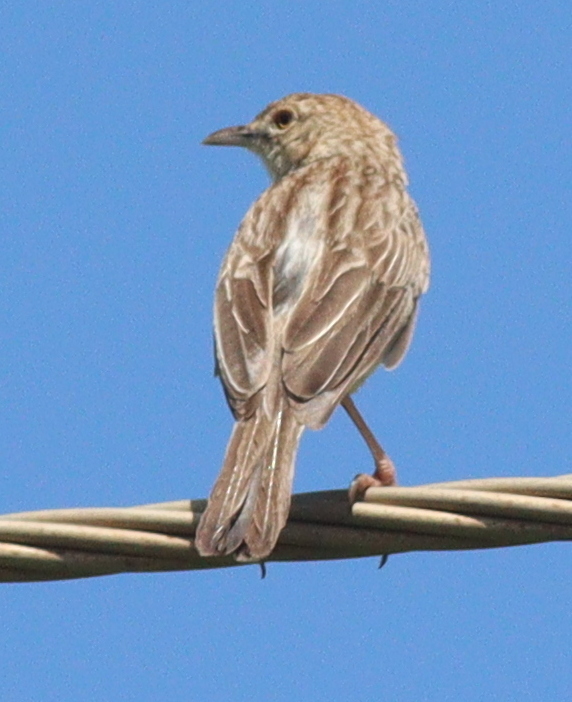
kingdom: Animalia
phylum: Chordata
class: Aves
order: Passeriformes
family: Cisticolidae
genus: Cisticola
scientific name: Cisticola natalensis
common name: Croaking cisticola
